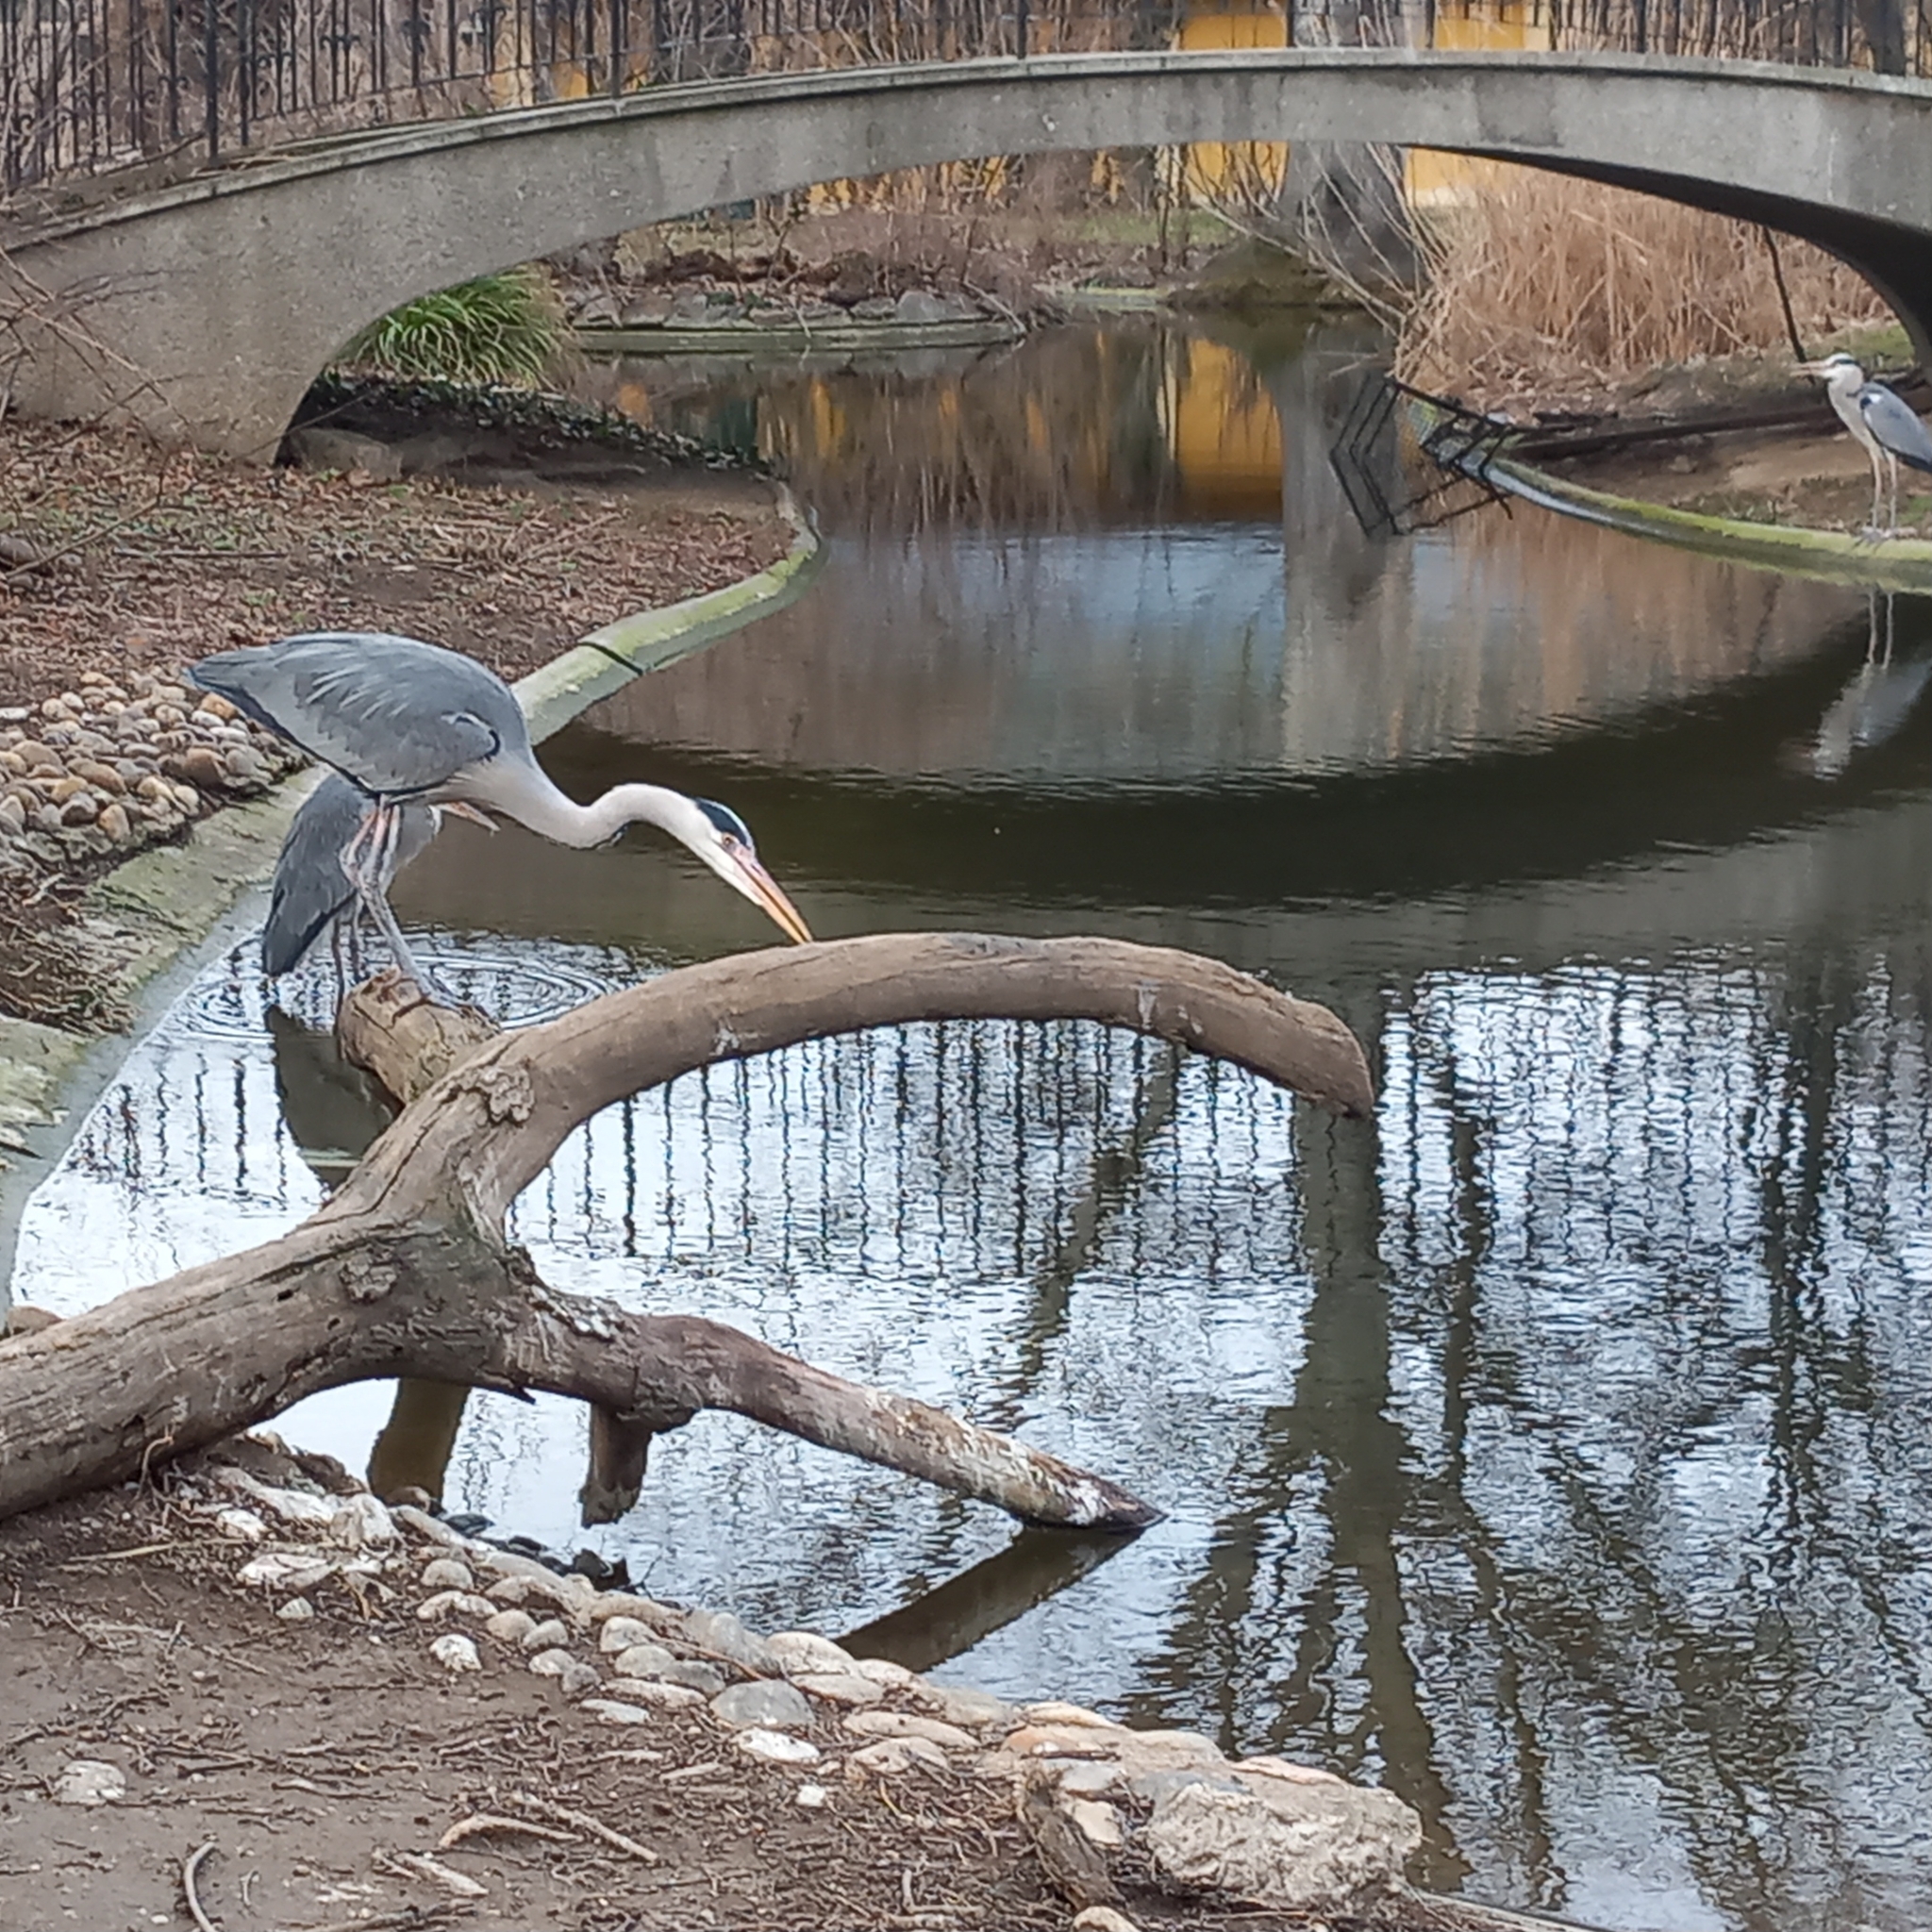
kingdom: Animalia
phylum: Chordata
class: Aves
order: Pelecaniformes
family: Ardeidae
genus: Ardea
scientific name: Ardea cinerea
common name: Grey heron
